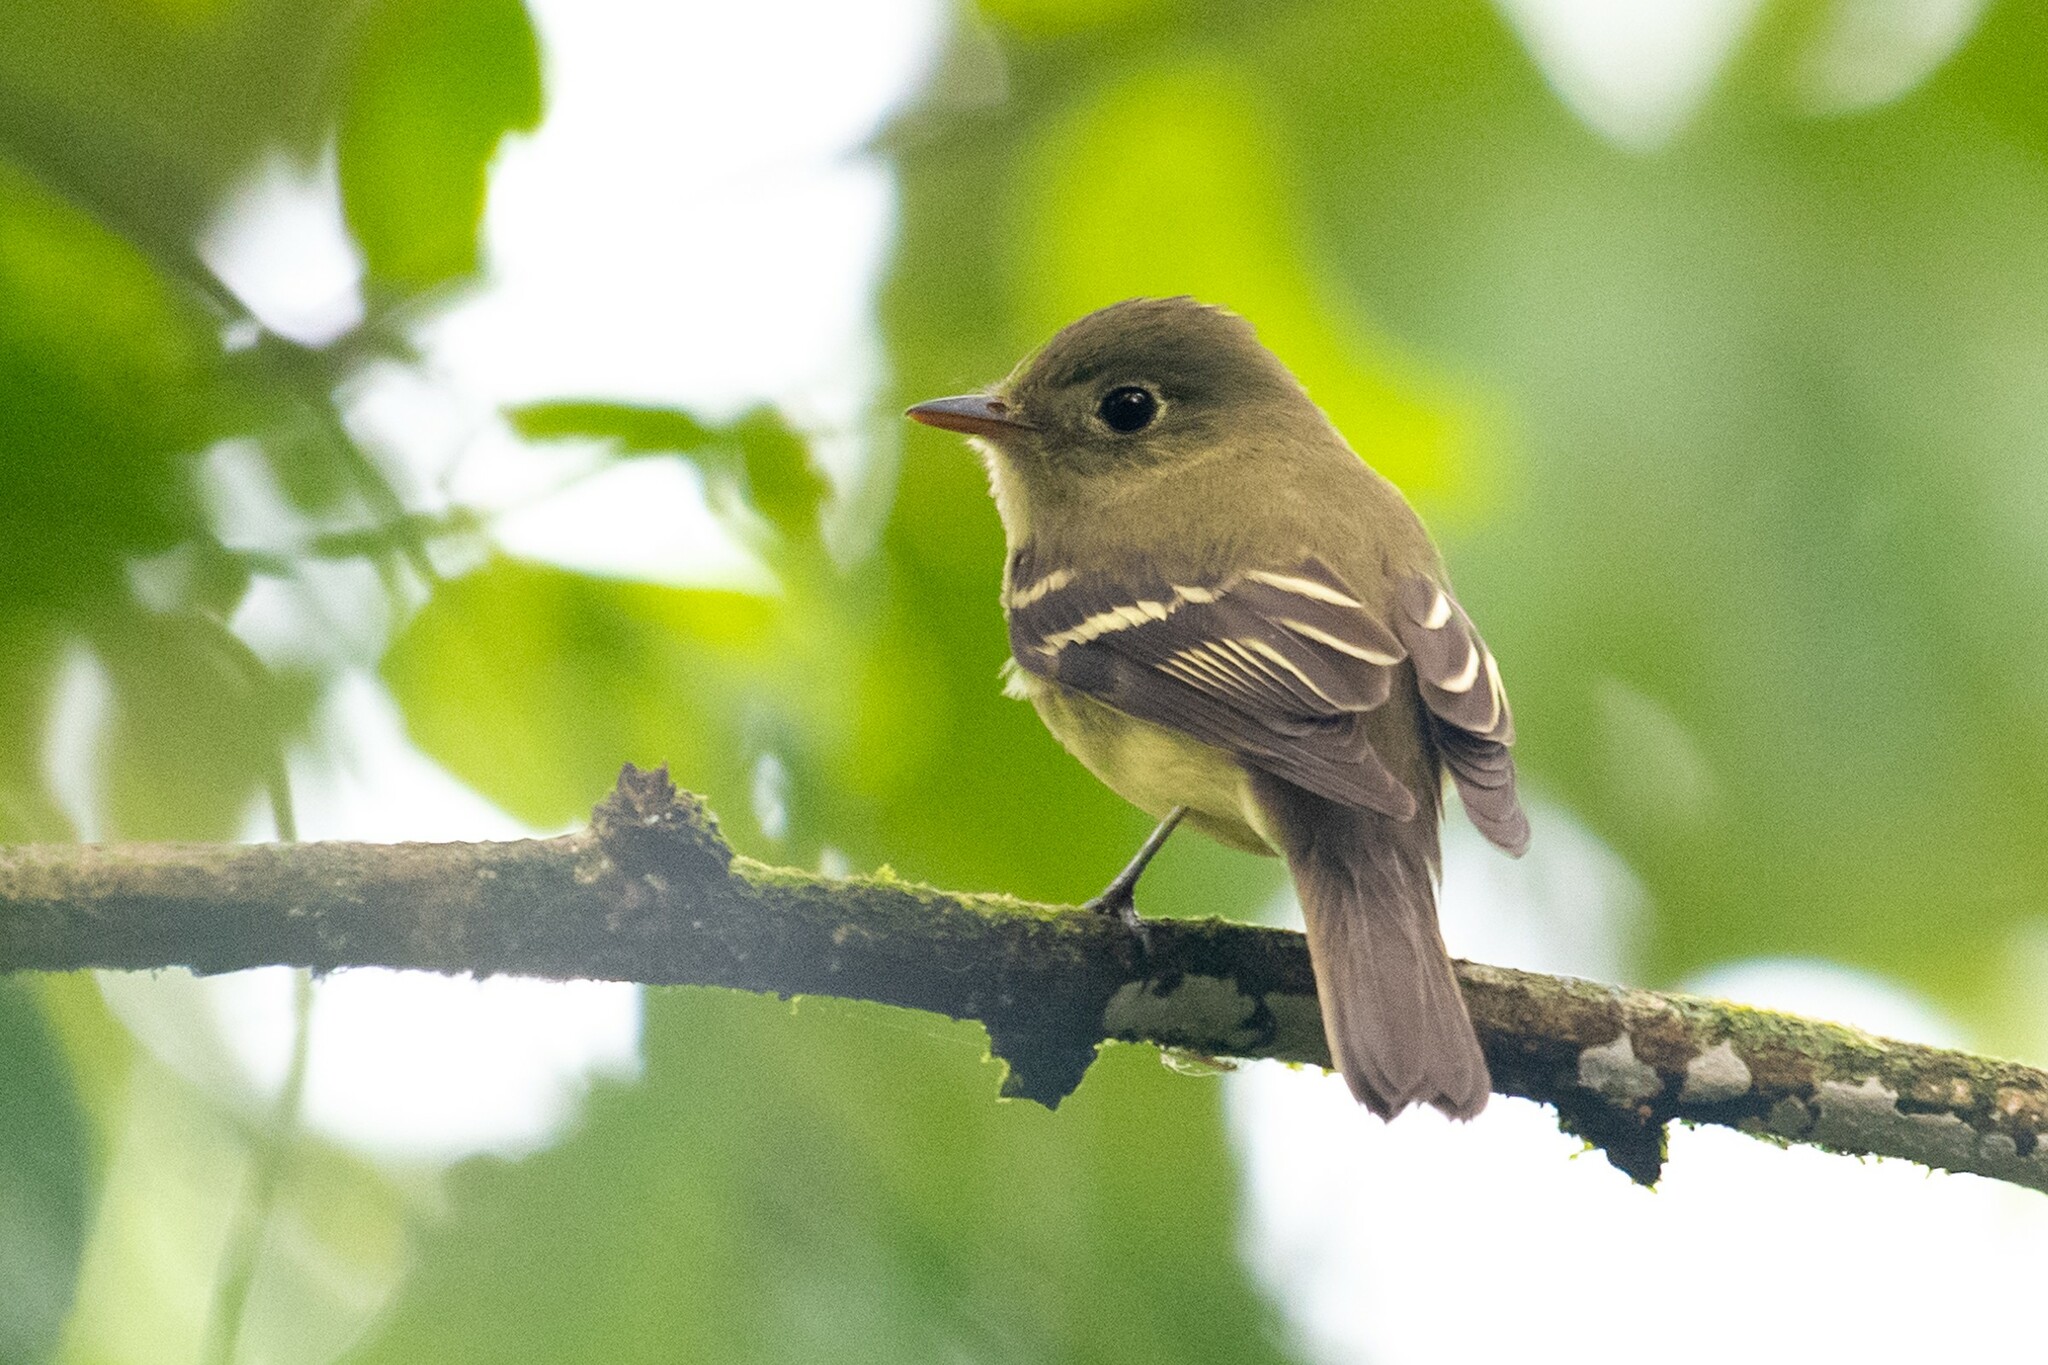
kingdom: Animalia
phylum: Chordata
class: Aves
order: Passeriformes
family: Tyrannidae
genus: Empidonax
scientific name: Empidonax flaviventris
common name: Yellow-bellied flycatcher
